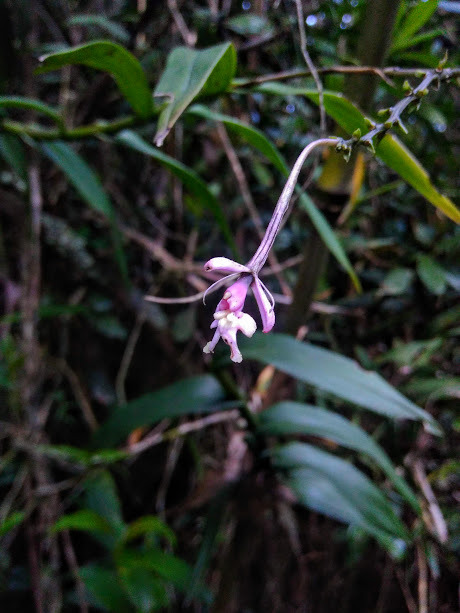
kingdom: Plantae
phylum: Tracheophyta
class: Liliopsida
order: Asparagales
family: Orchidaceae
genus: Epidendrum
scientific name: Epidendrum arnoldii
